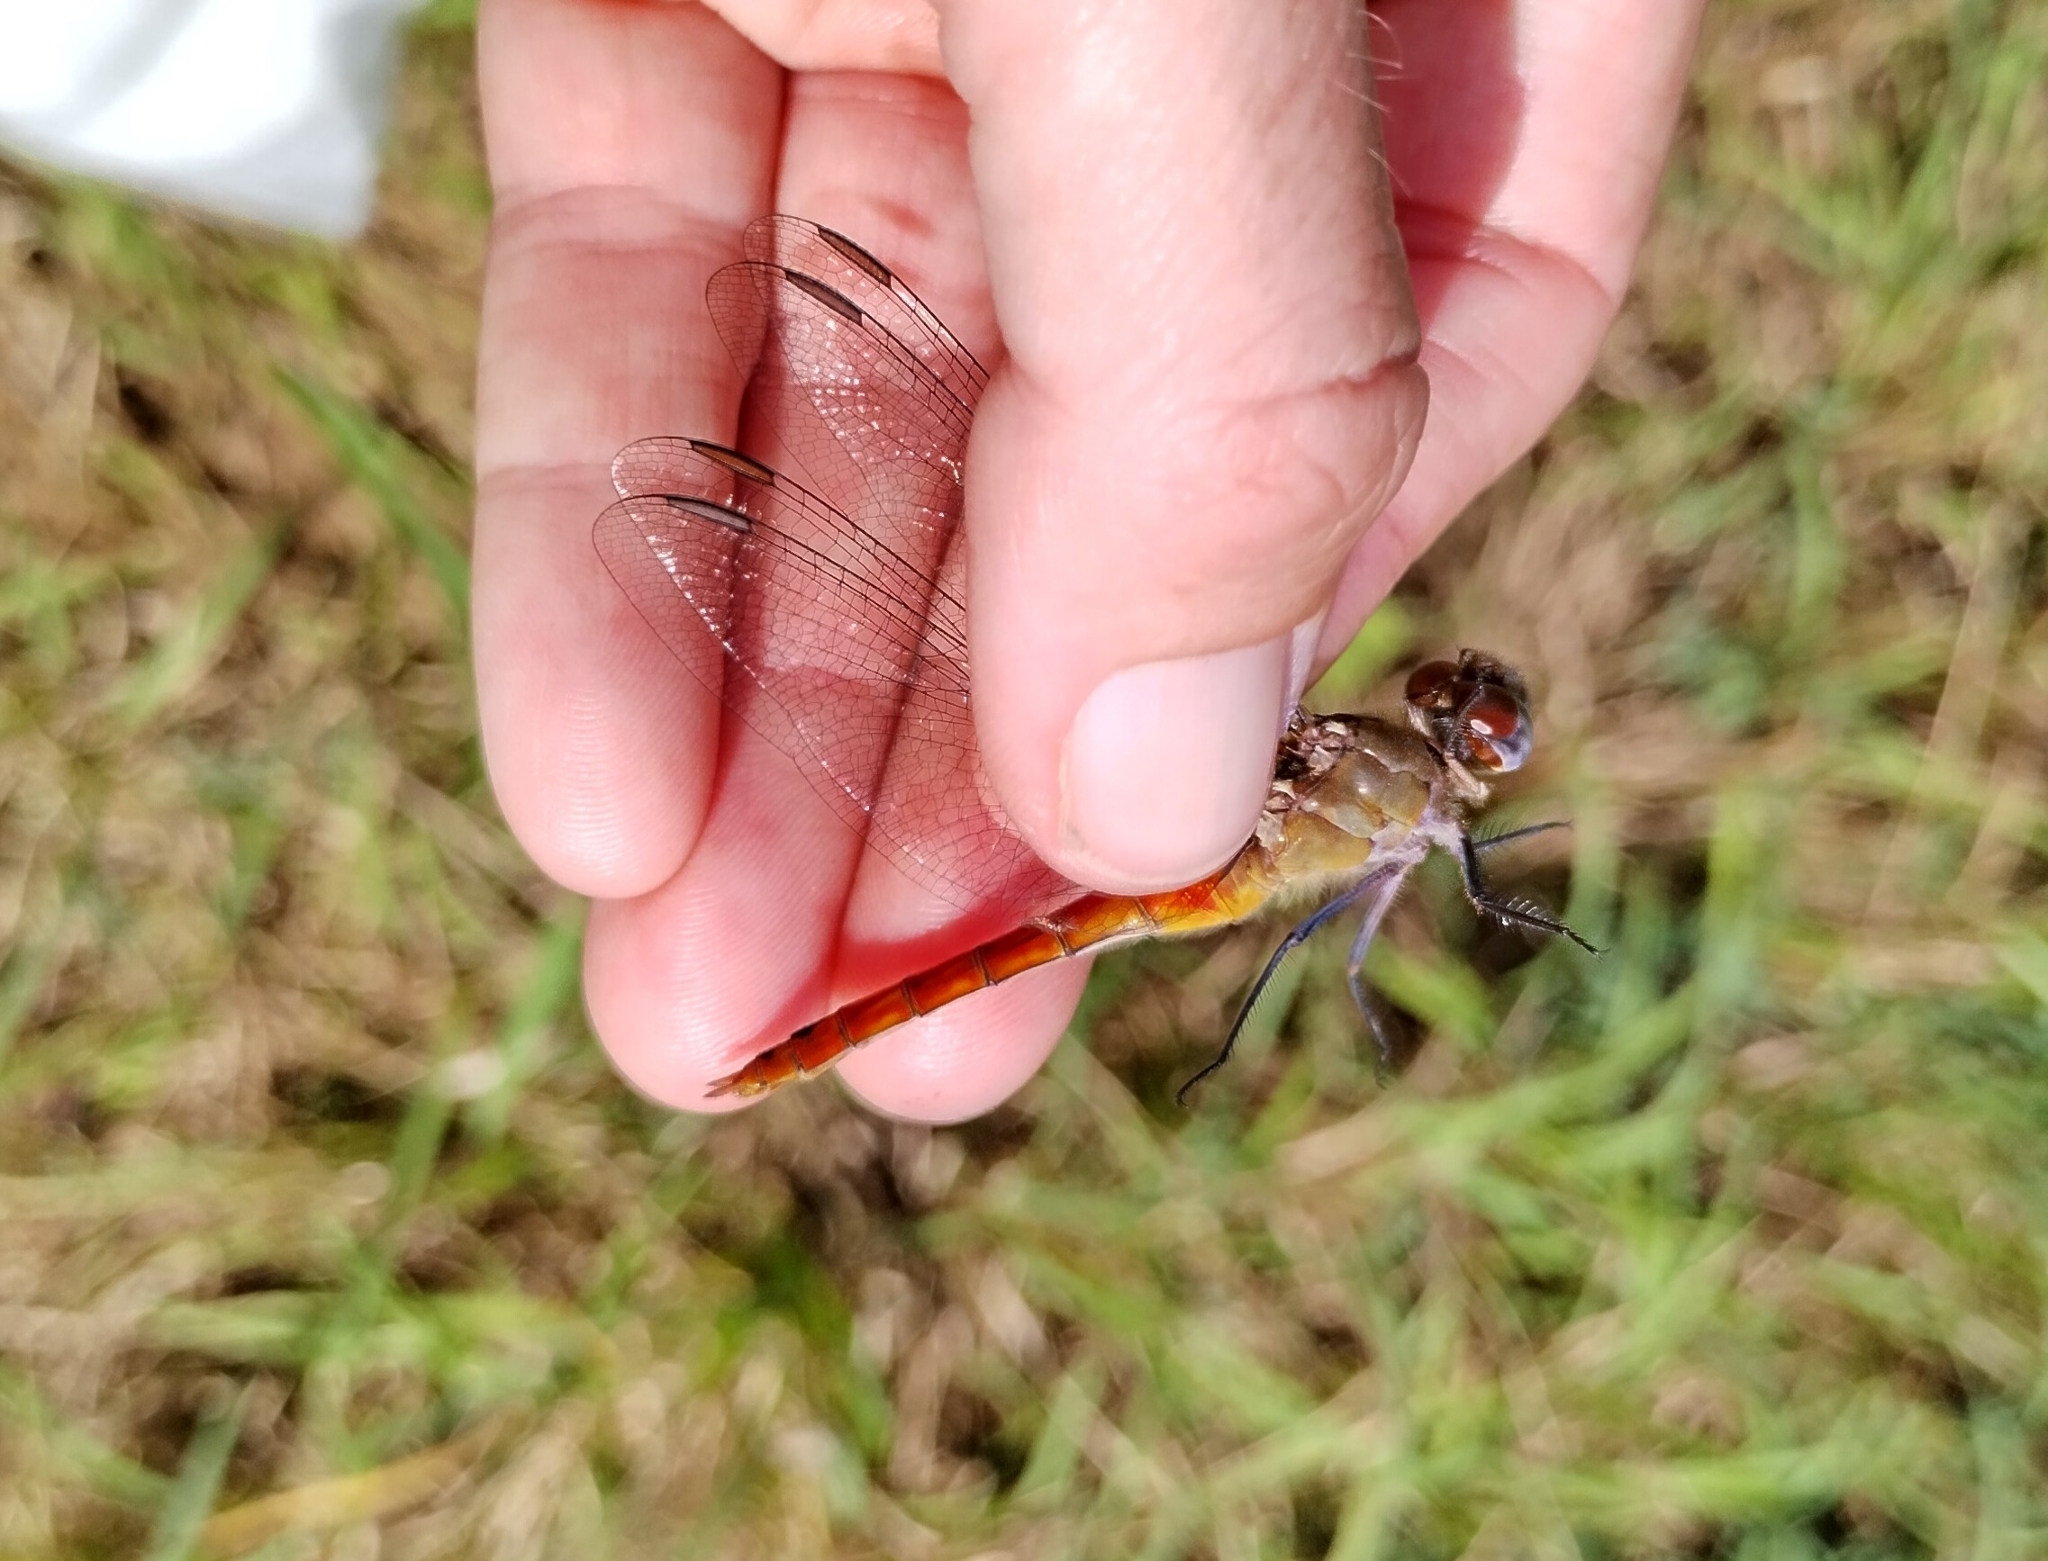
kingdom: Animalia
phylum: Arthropoda
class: Insecta
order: Odonata
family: Libellulidae
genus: Brachymesia
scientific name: Brachymesia furcata
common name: Red-taled pennant
